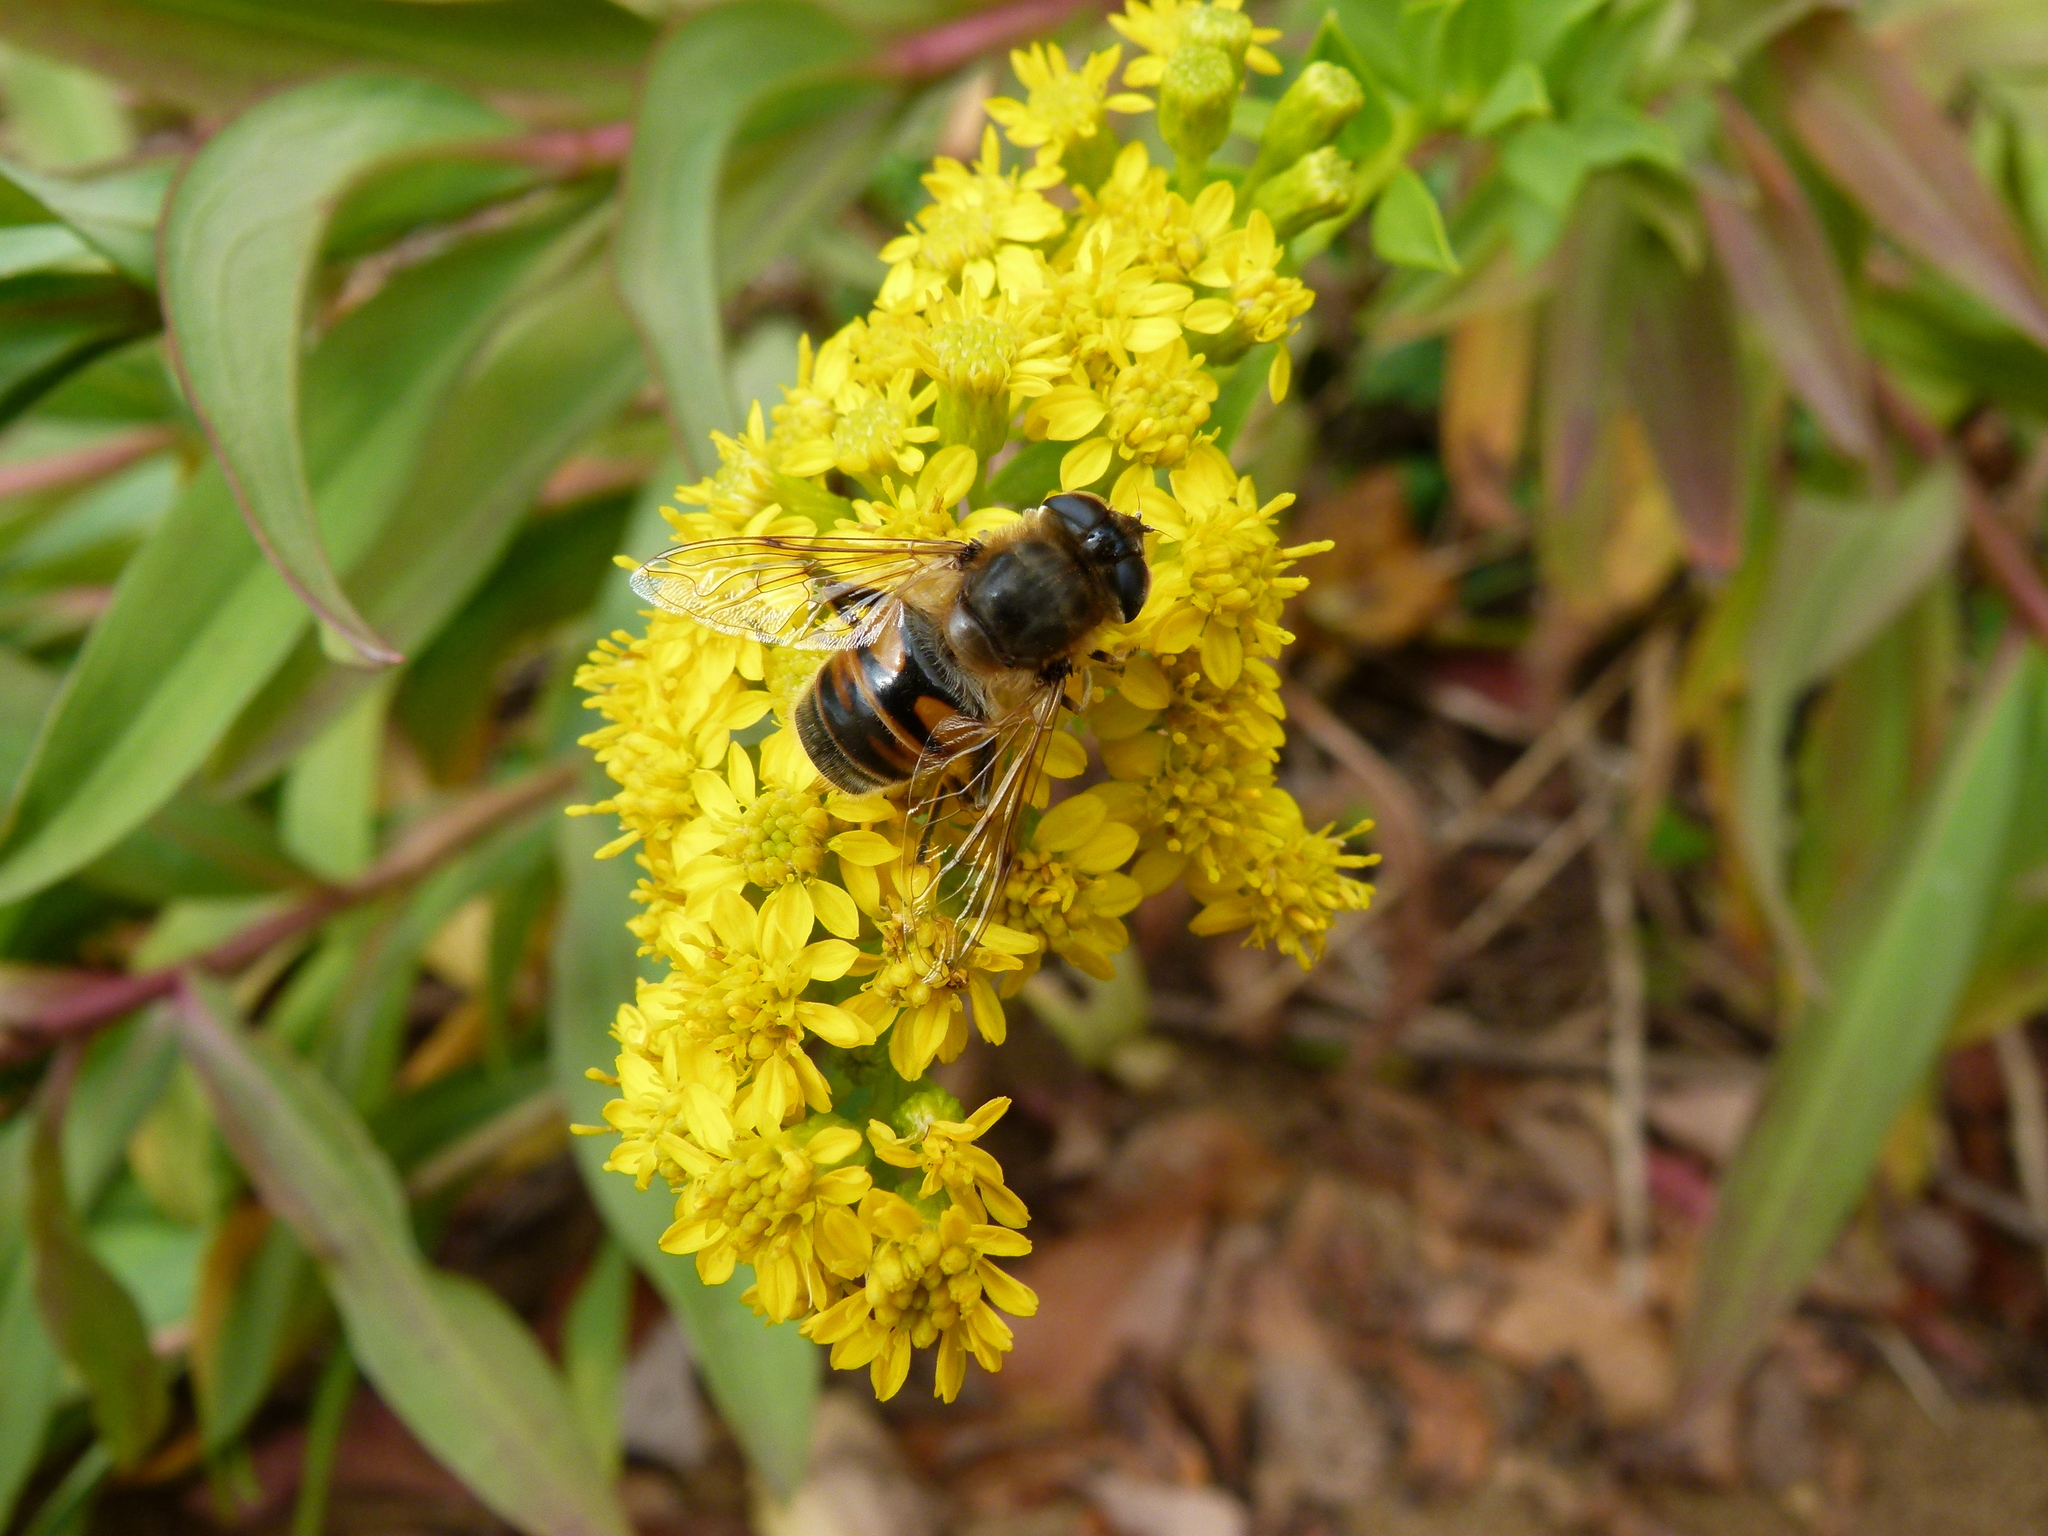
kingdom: Animalia
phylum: Arthropoda
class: Insecta
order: Diptera
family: Syrphidae
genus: Eristalis
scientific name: Eristalis tenax
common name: Drone fly
